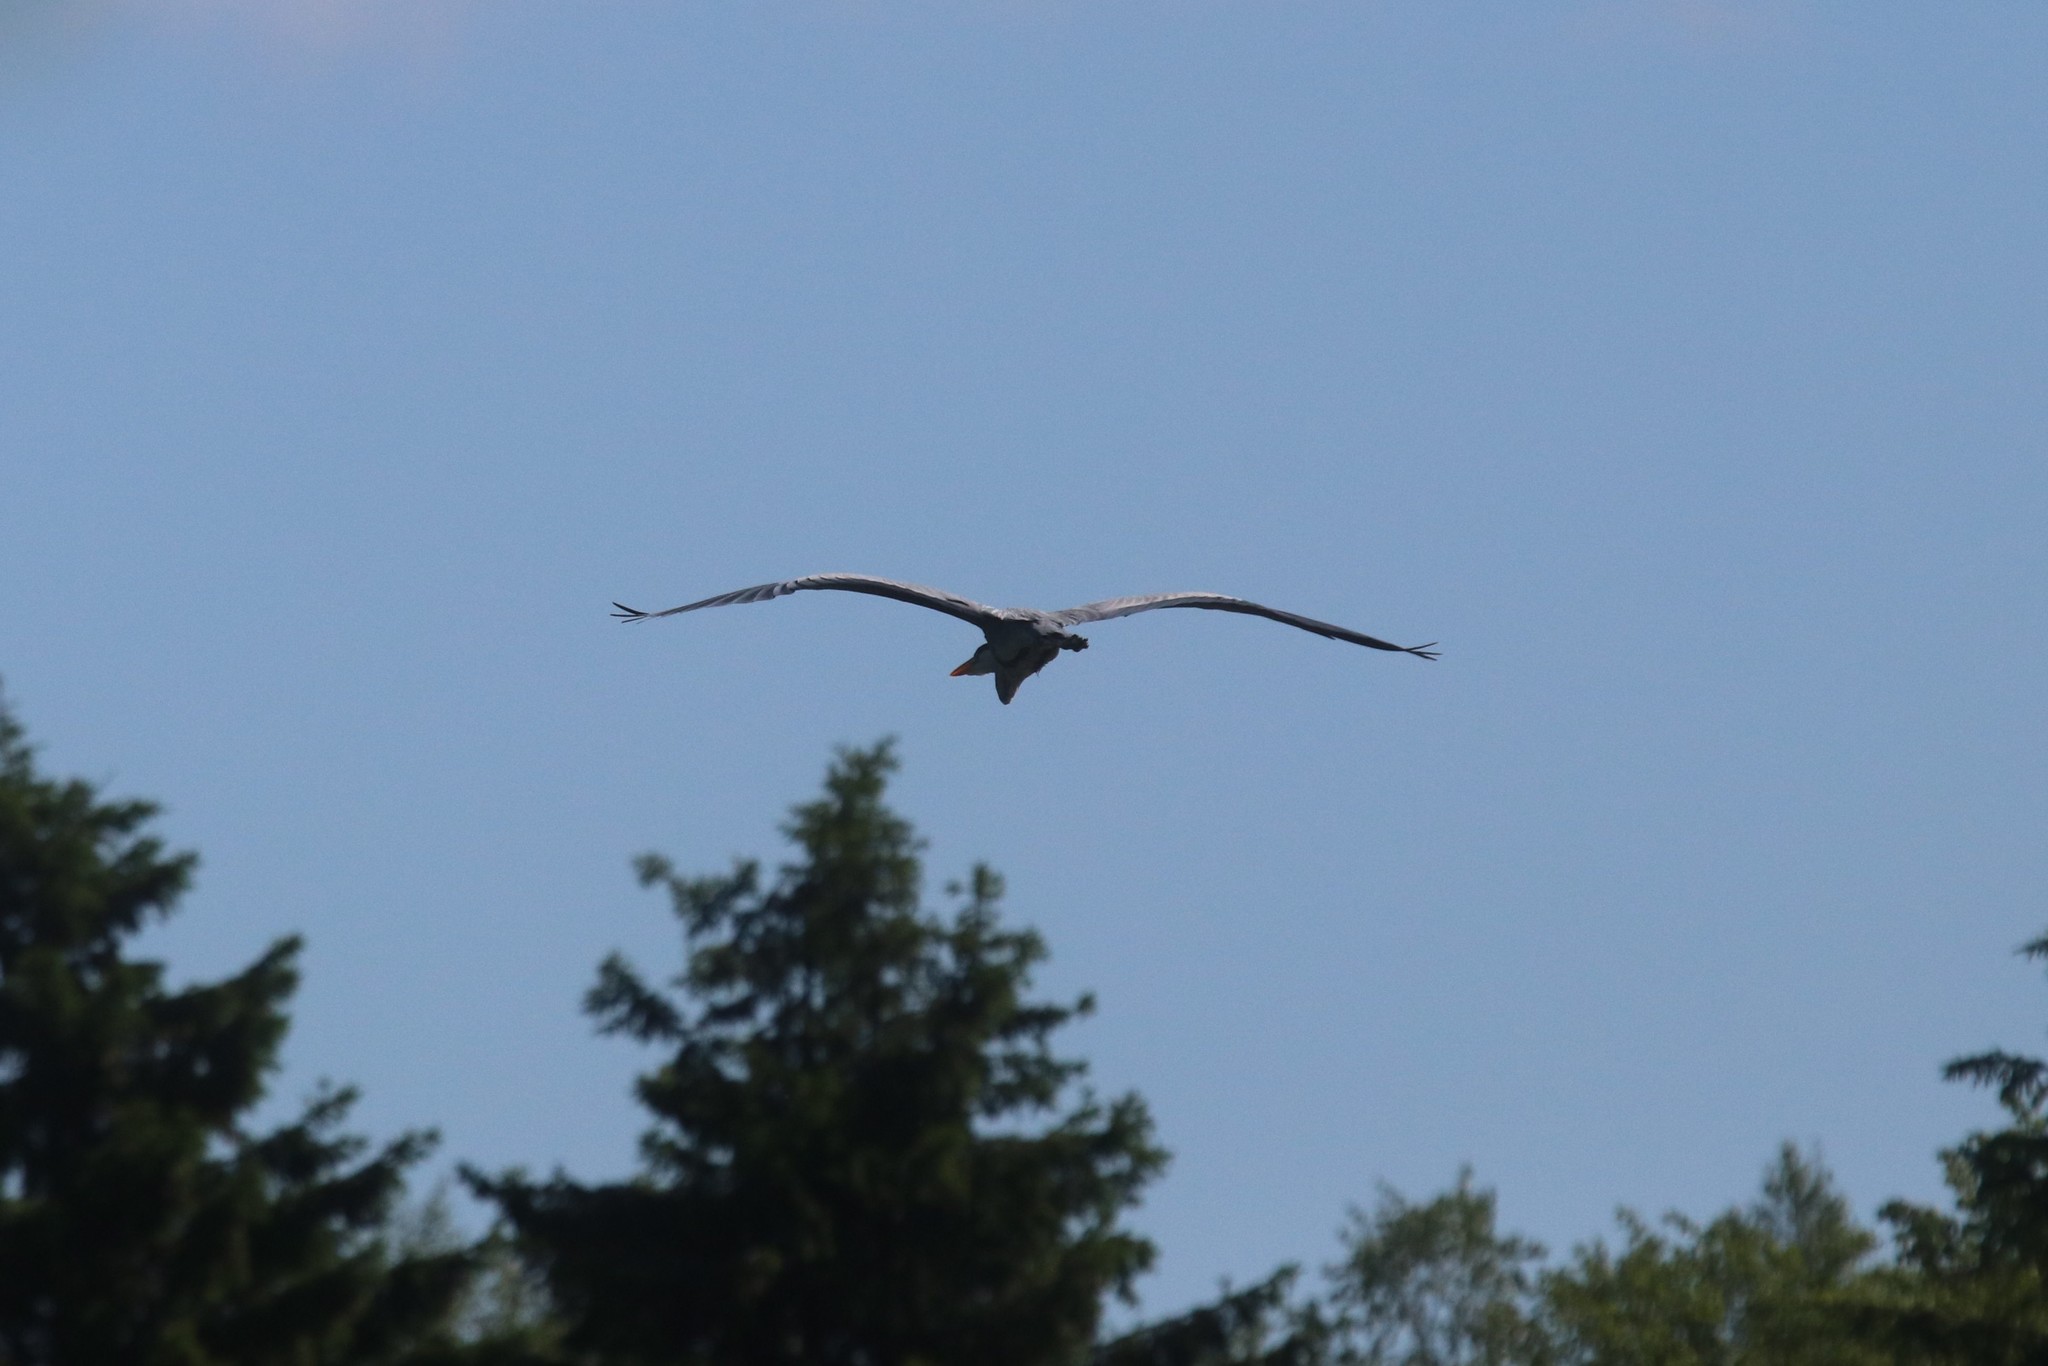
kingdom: Animalia
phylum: Chordata
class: Aves
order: Pelecaniformes
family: Ardeidae
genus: Ardea
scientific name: Ardea cinerea
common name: Grey heron
